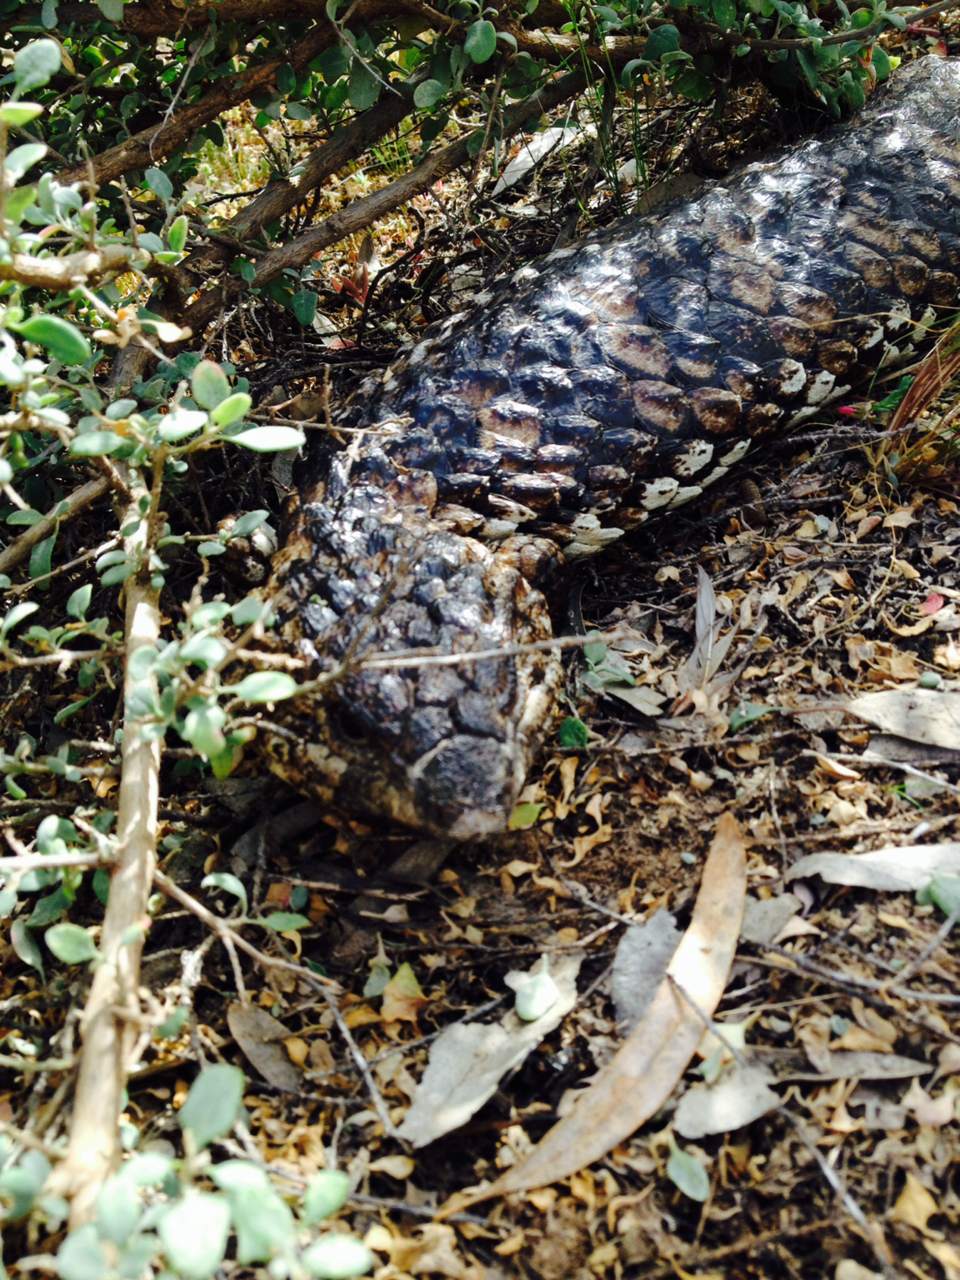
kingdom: Animalia
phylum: Chordata
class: Squamata
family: Scincidae
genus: Tiliqua
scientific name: Tiliqua rugosa
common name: Pinecone lizard
